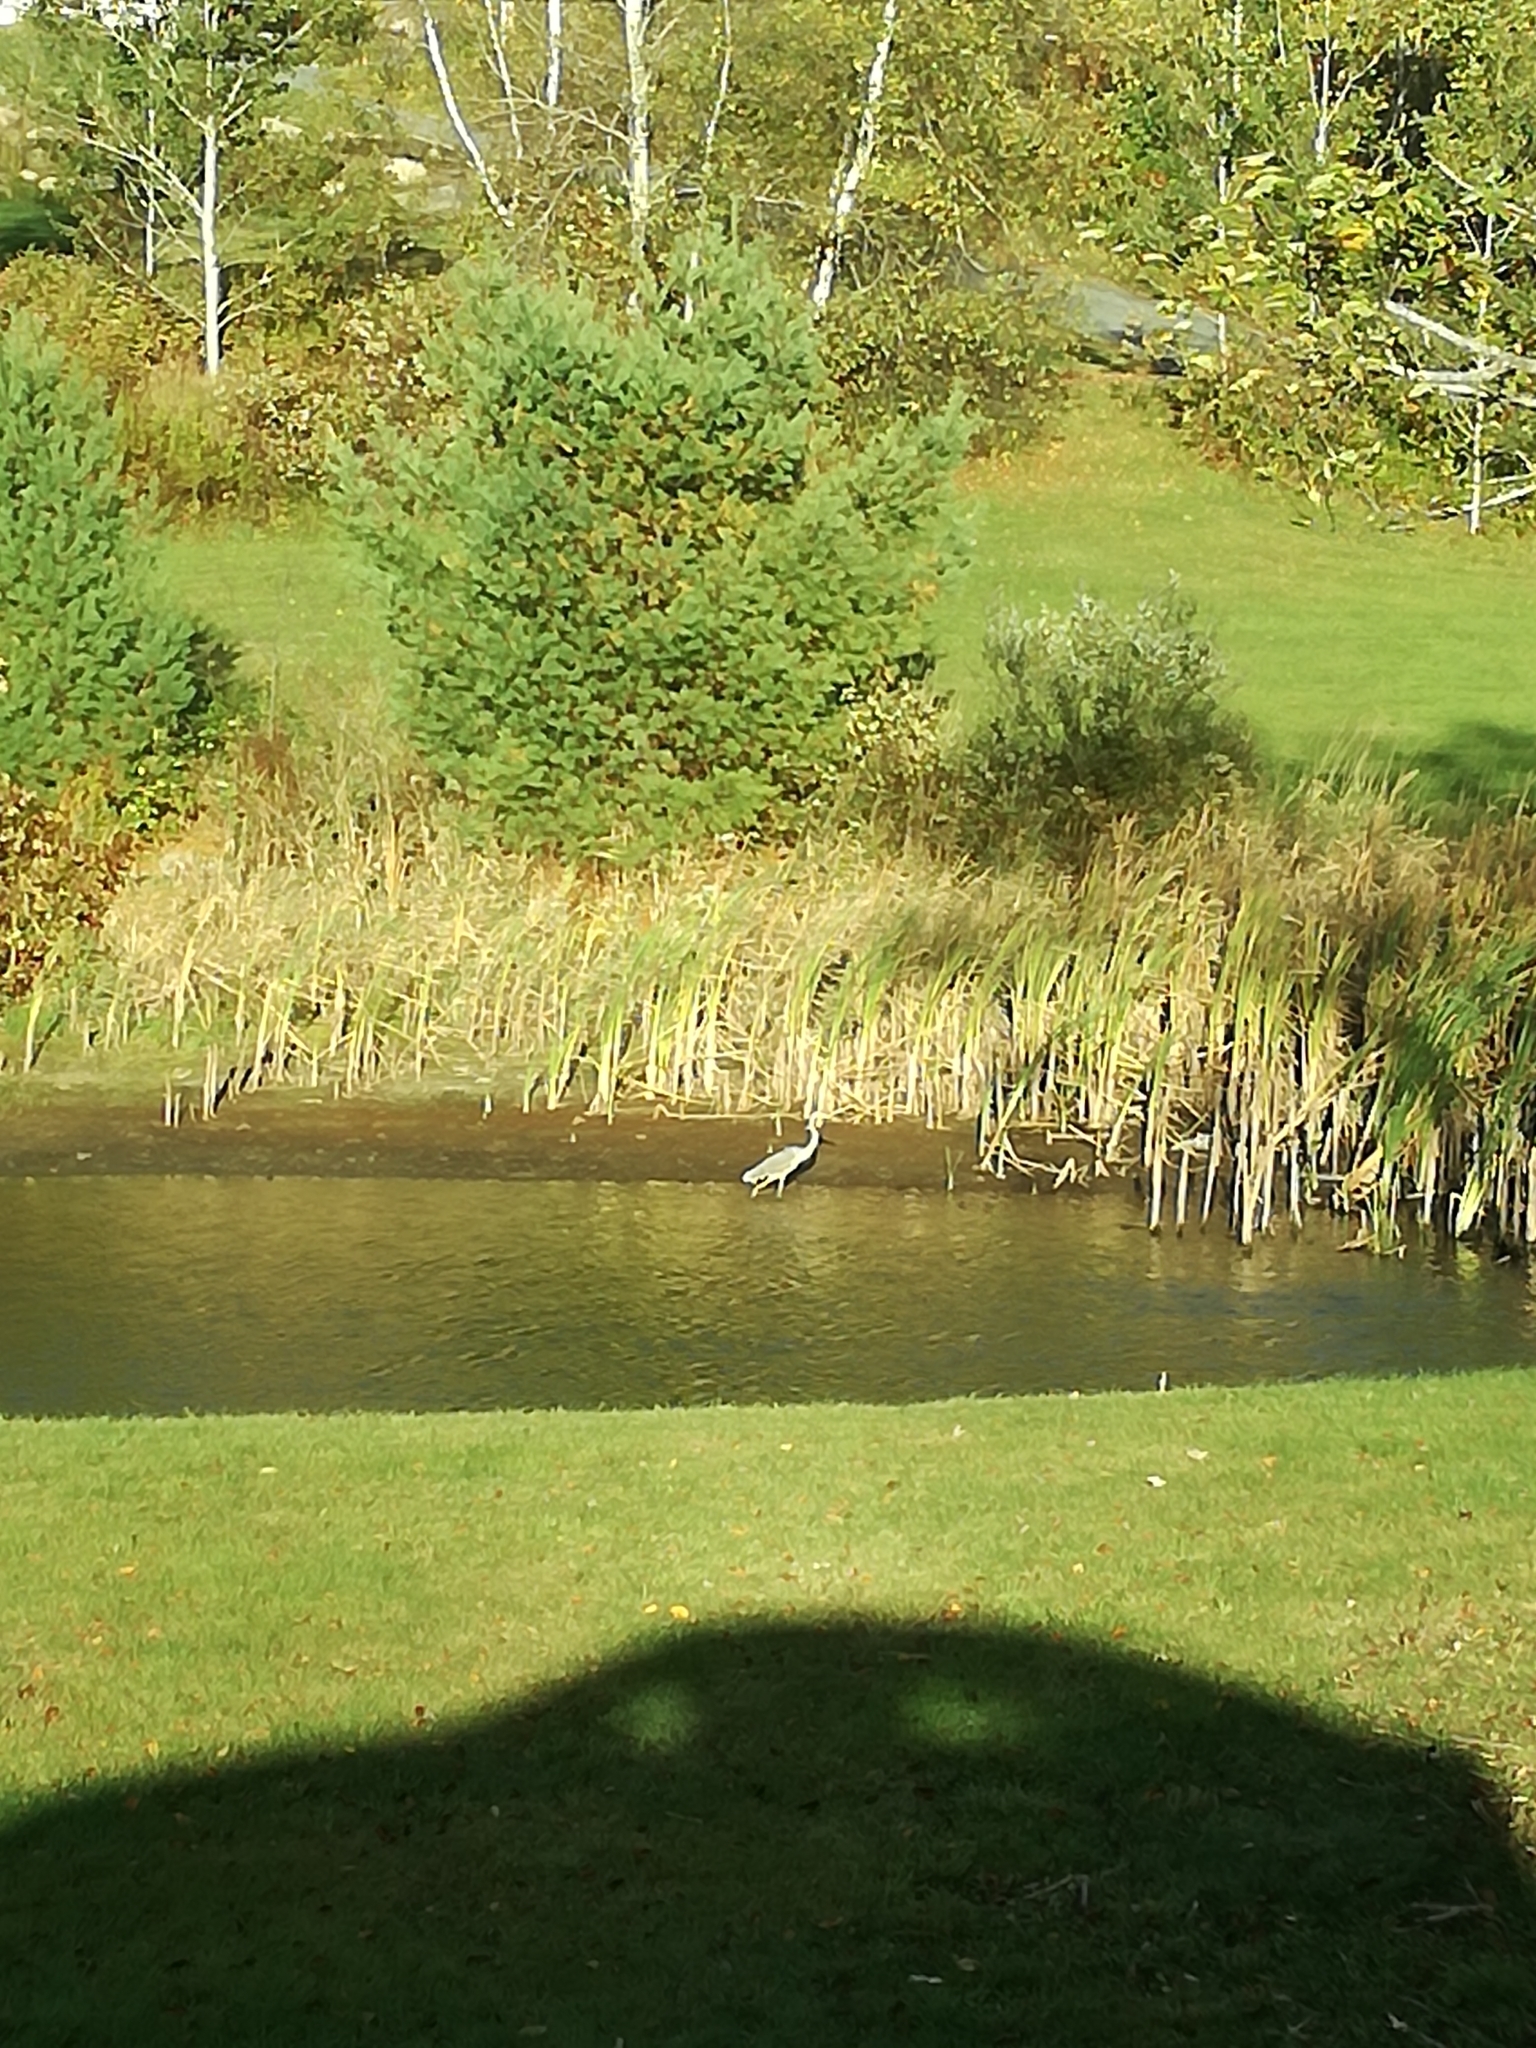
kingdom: Animalia
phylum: Chordata
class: Aves
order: Pelecaniformes
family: Ardeidae
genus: Ardea
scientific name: Ardea herodias
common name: Great blue heron
